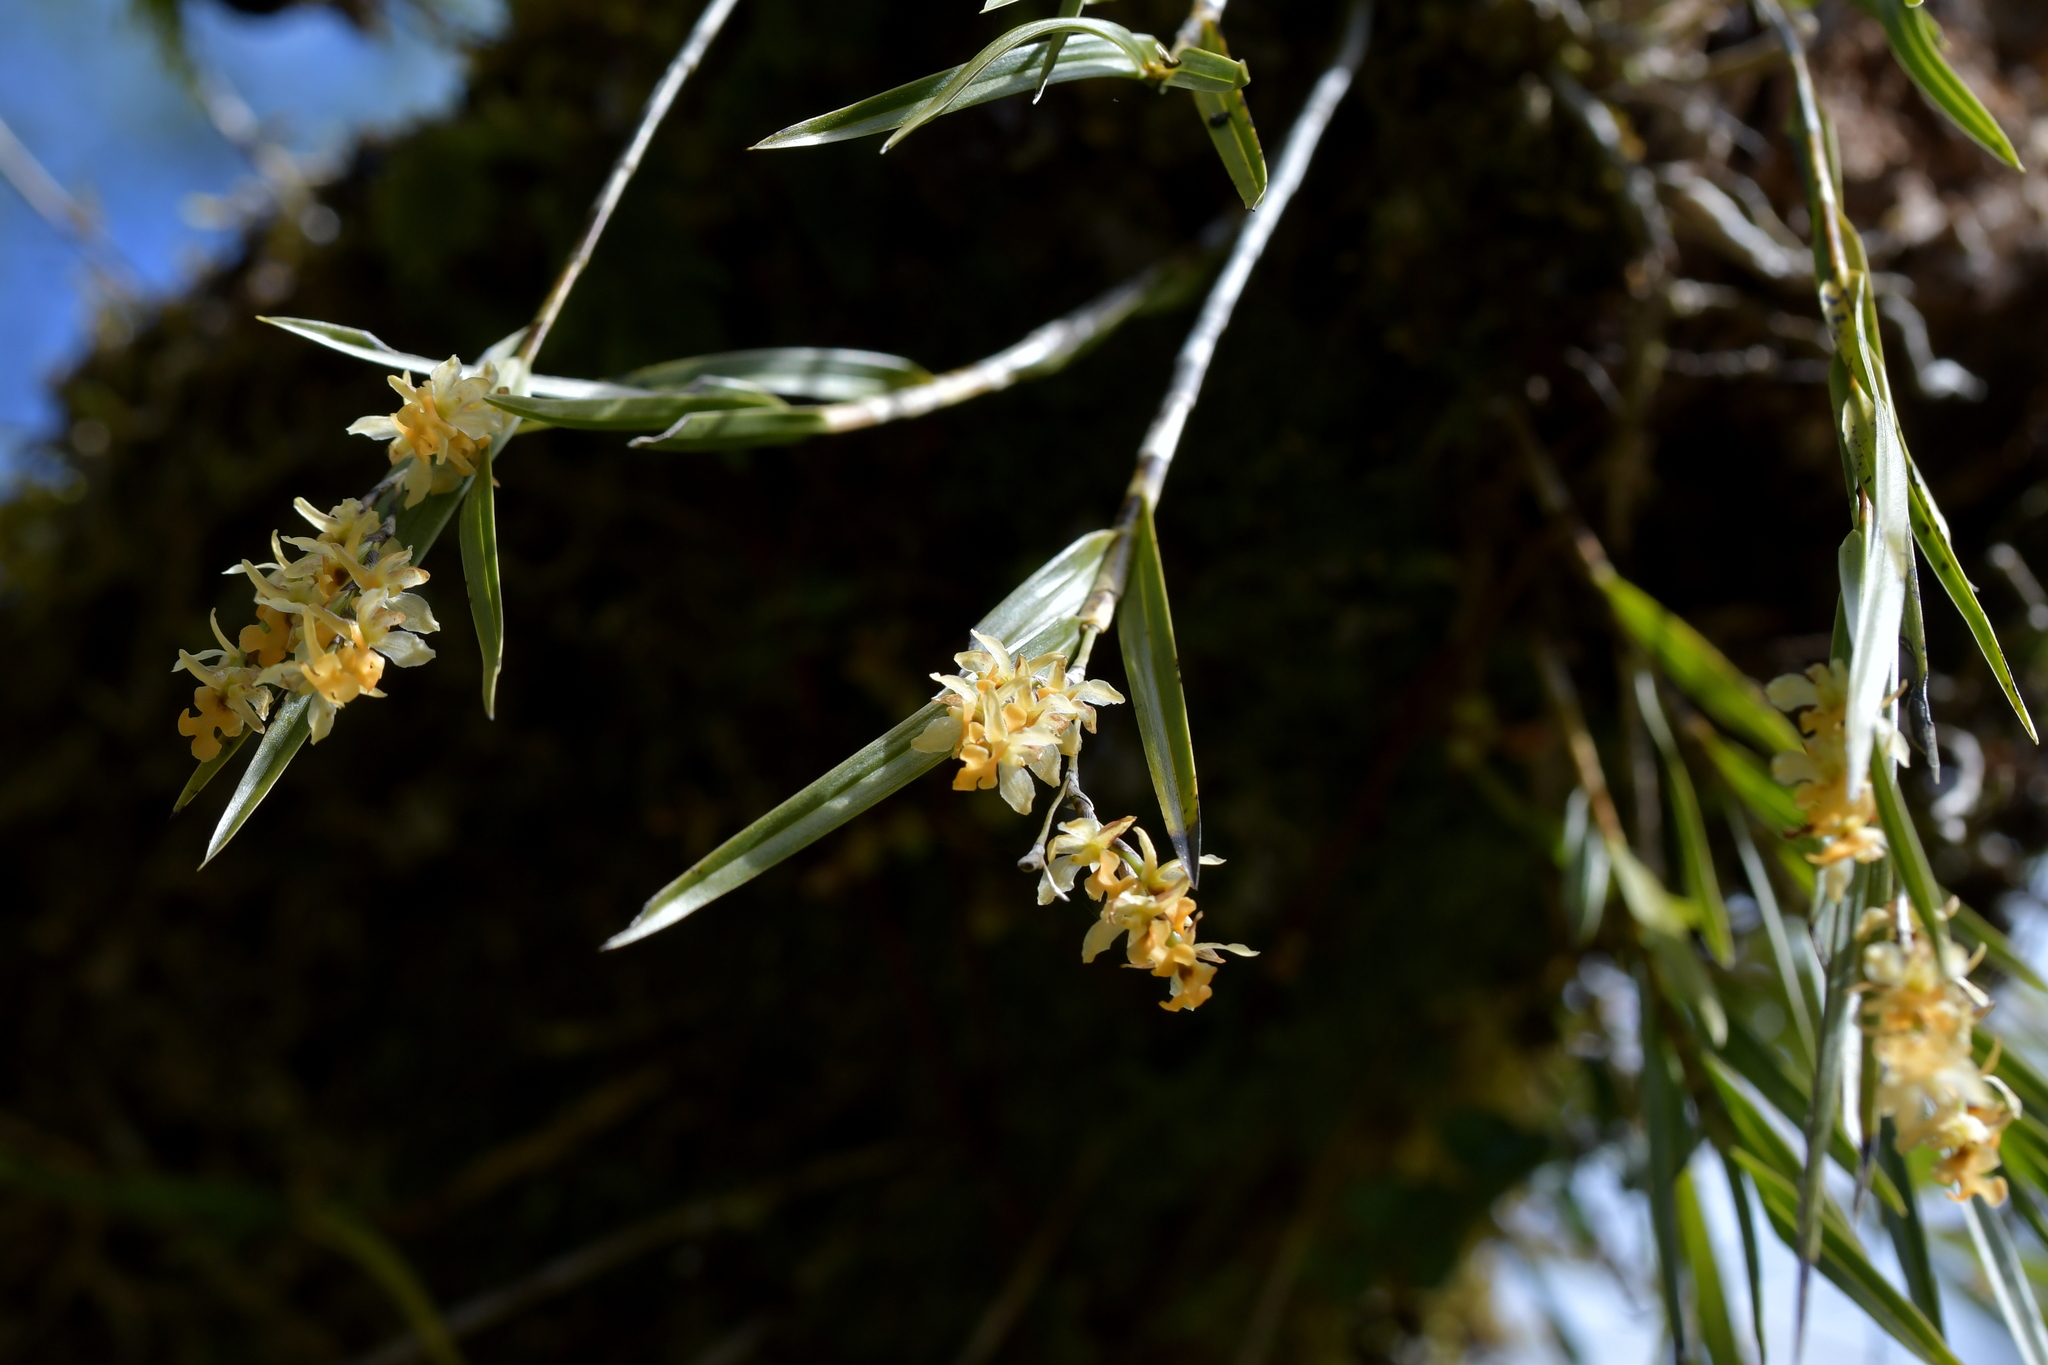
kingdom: Plantae
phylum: Tracheophyta
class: Liliopsida
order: Asparagales
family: Orchidaceae
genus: Earina
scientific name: Earina mucronata
